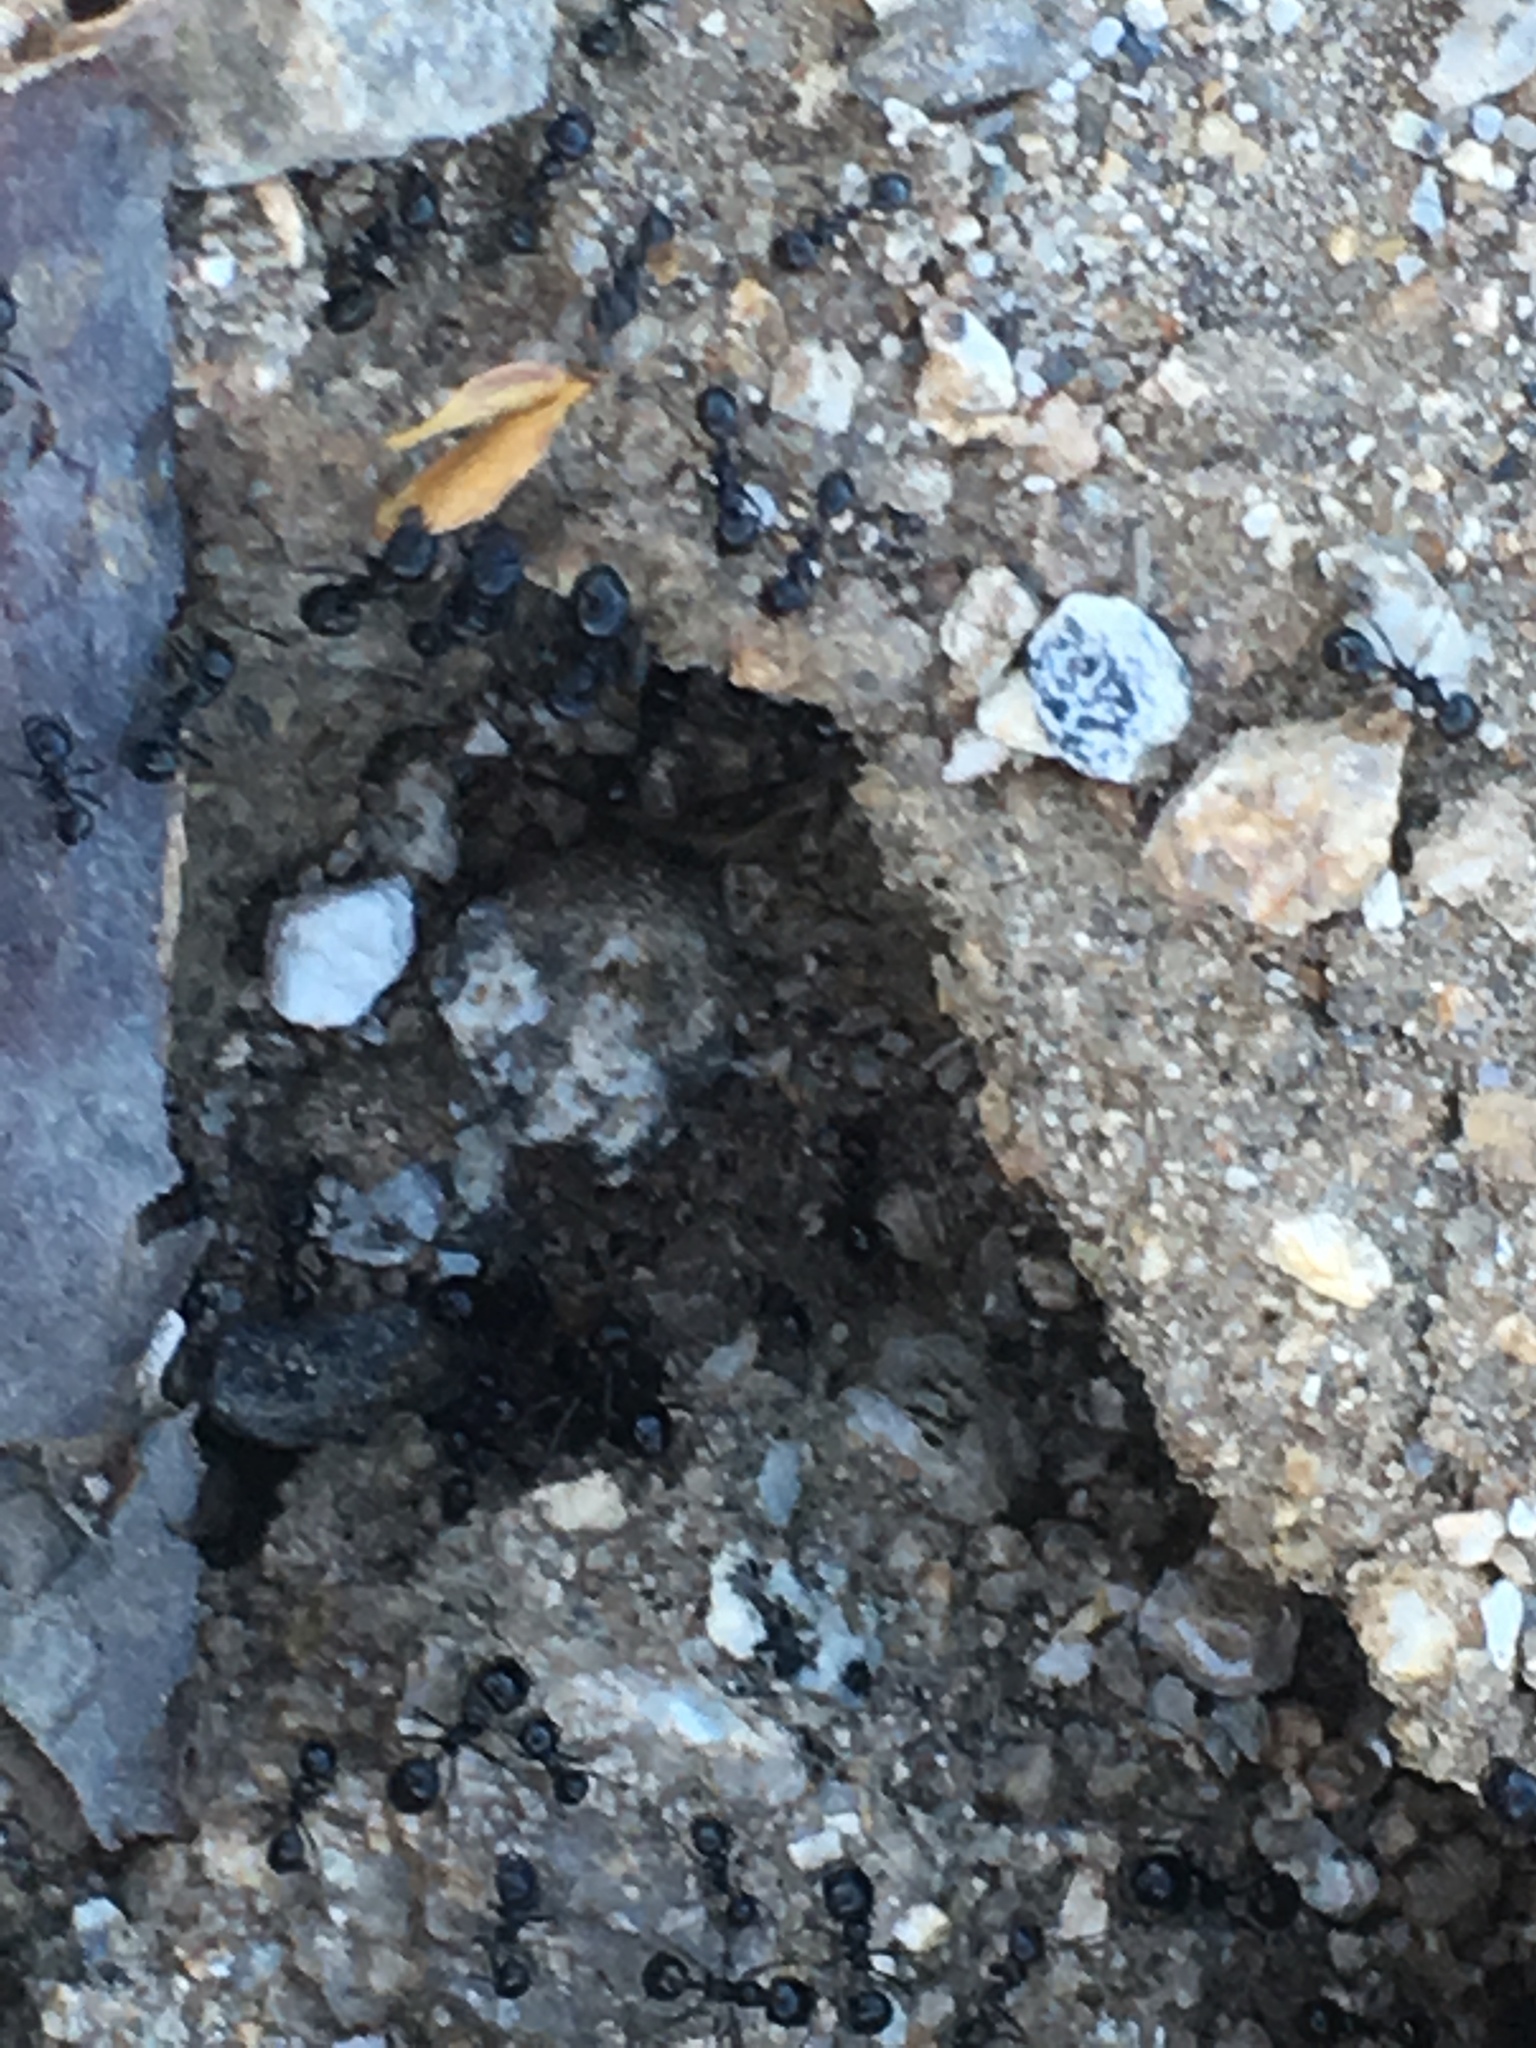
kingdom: Animalia
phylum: Arthropoda
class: Insecta
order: Hymenoptera
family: Formicidae
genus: Messor
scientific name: Messor pergandei
